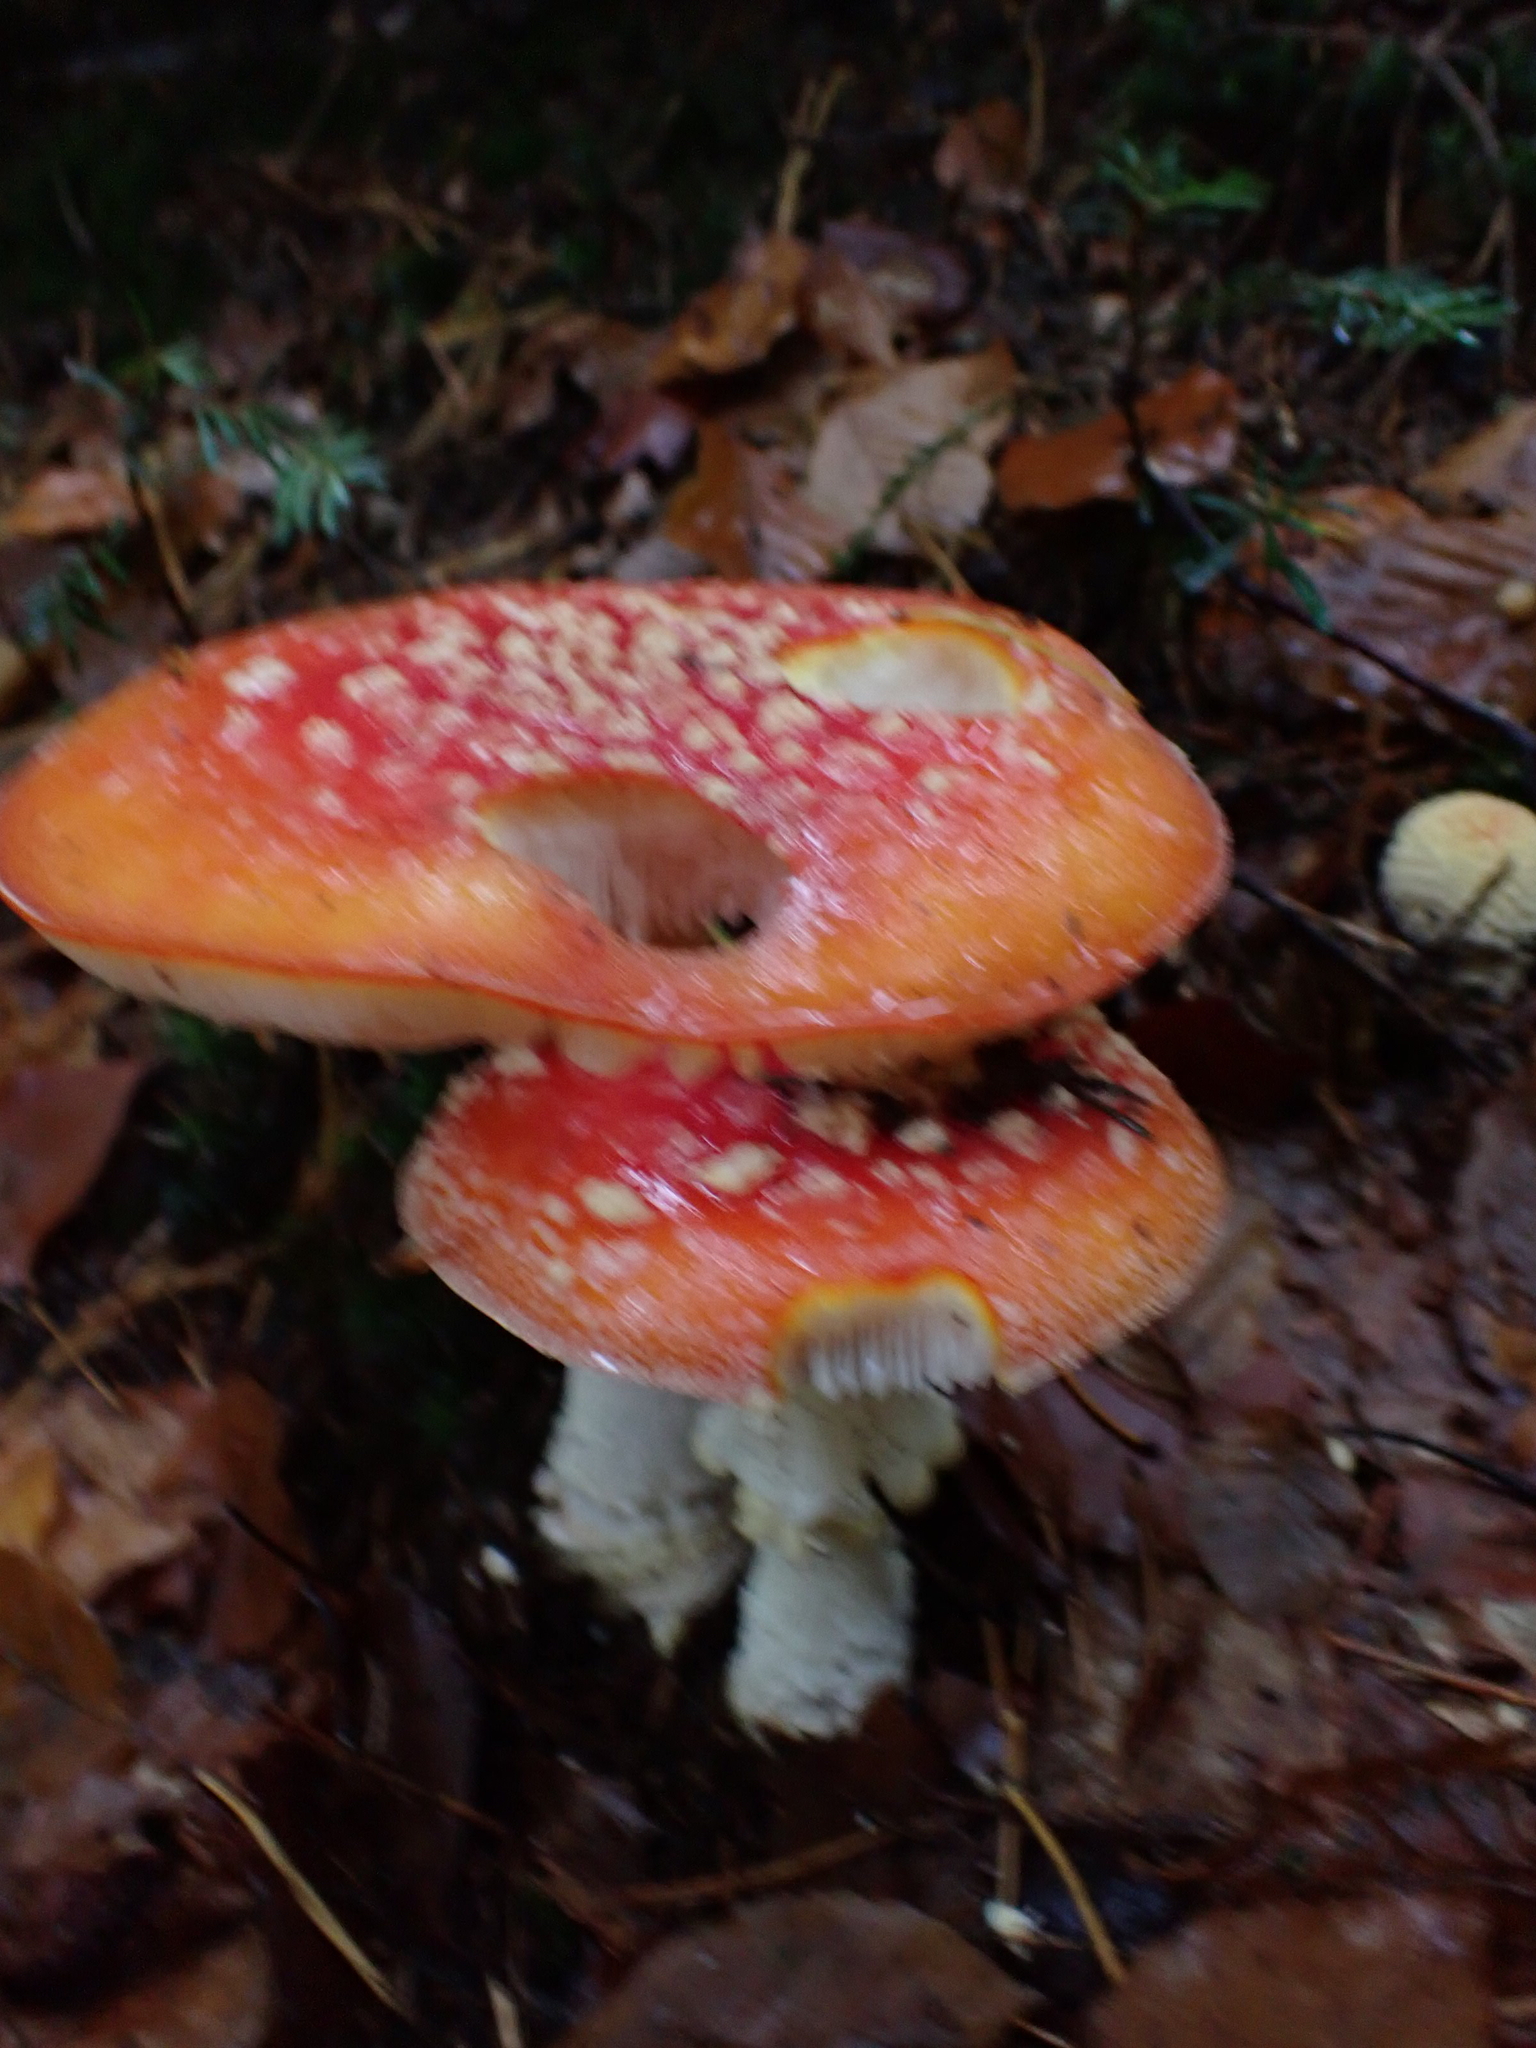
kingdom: Fungi
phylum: Basidiomycota
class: Agaricomycetes
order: Agaricales
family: Amanitaceae
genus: Amanita
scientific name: Amanita muscaria
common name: Fly agaric
